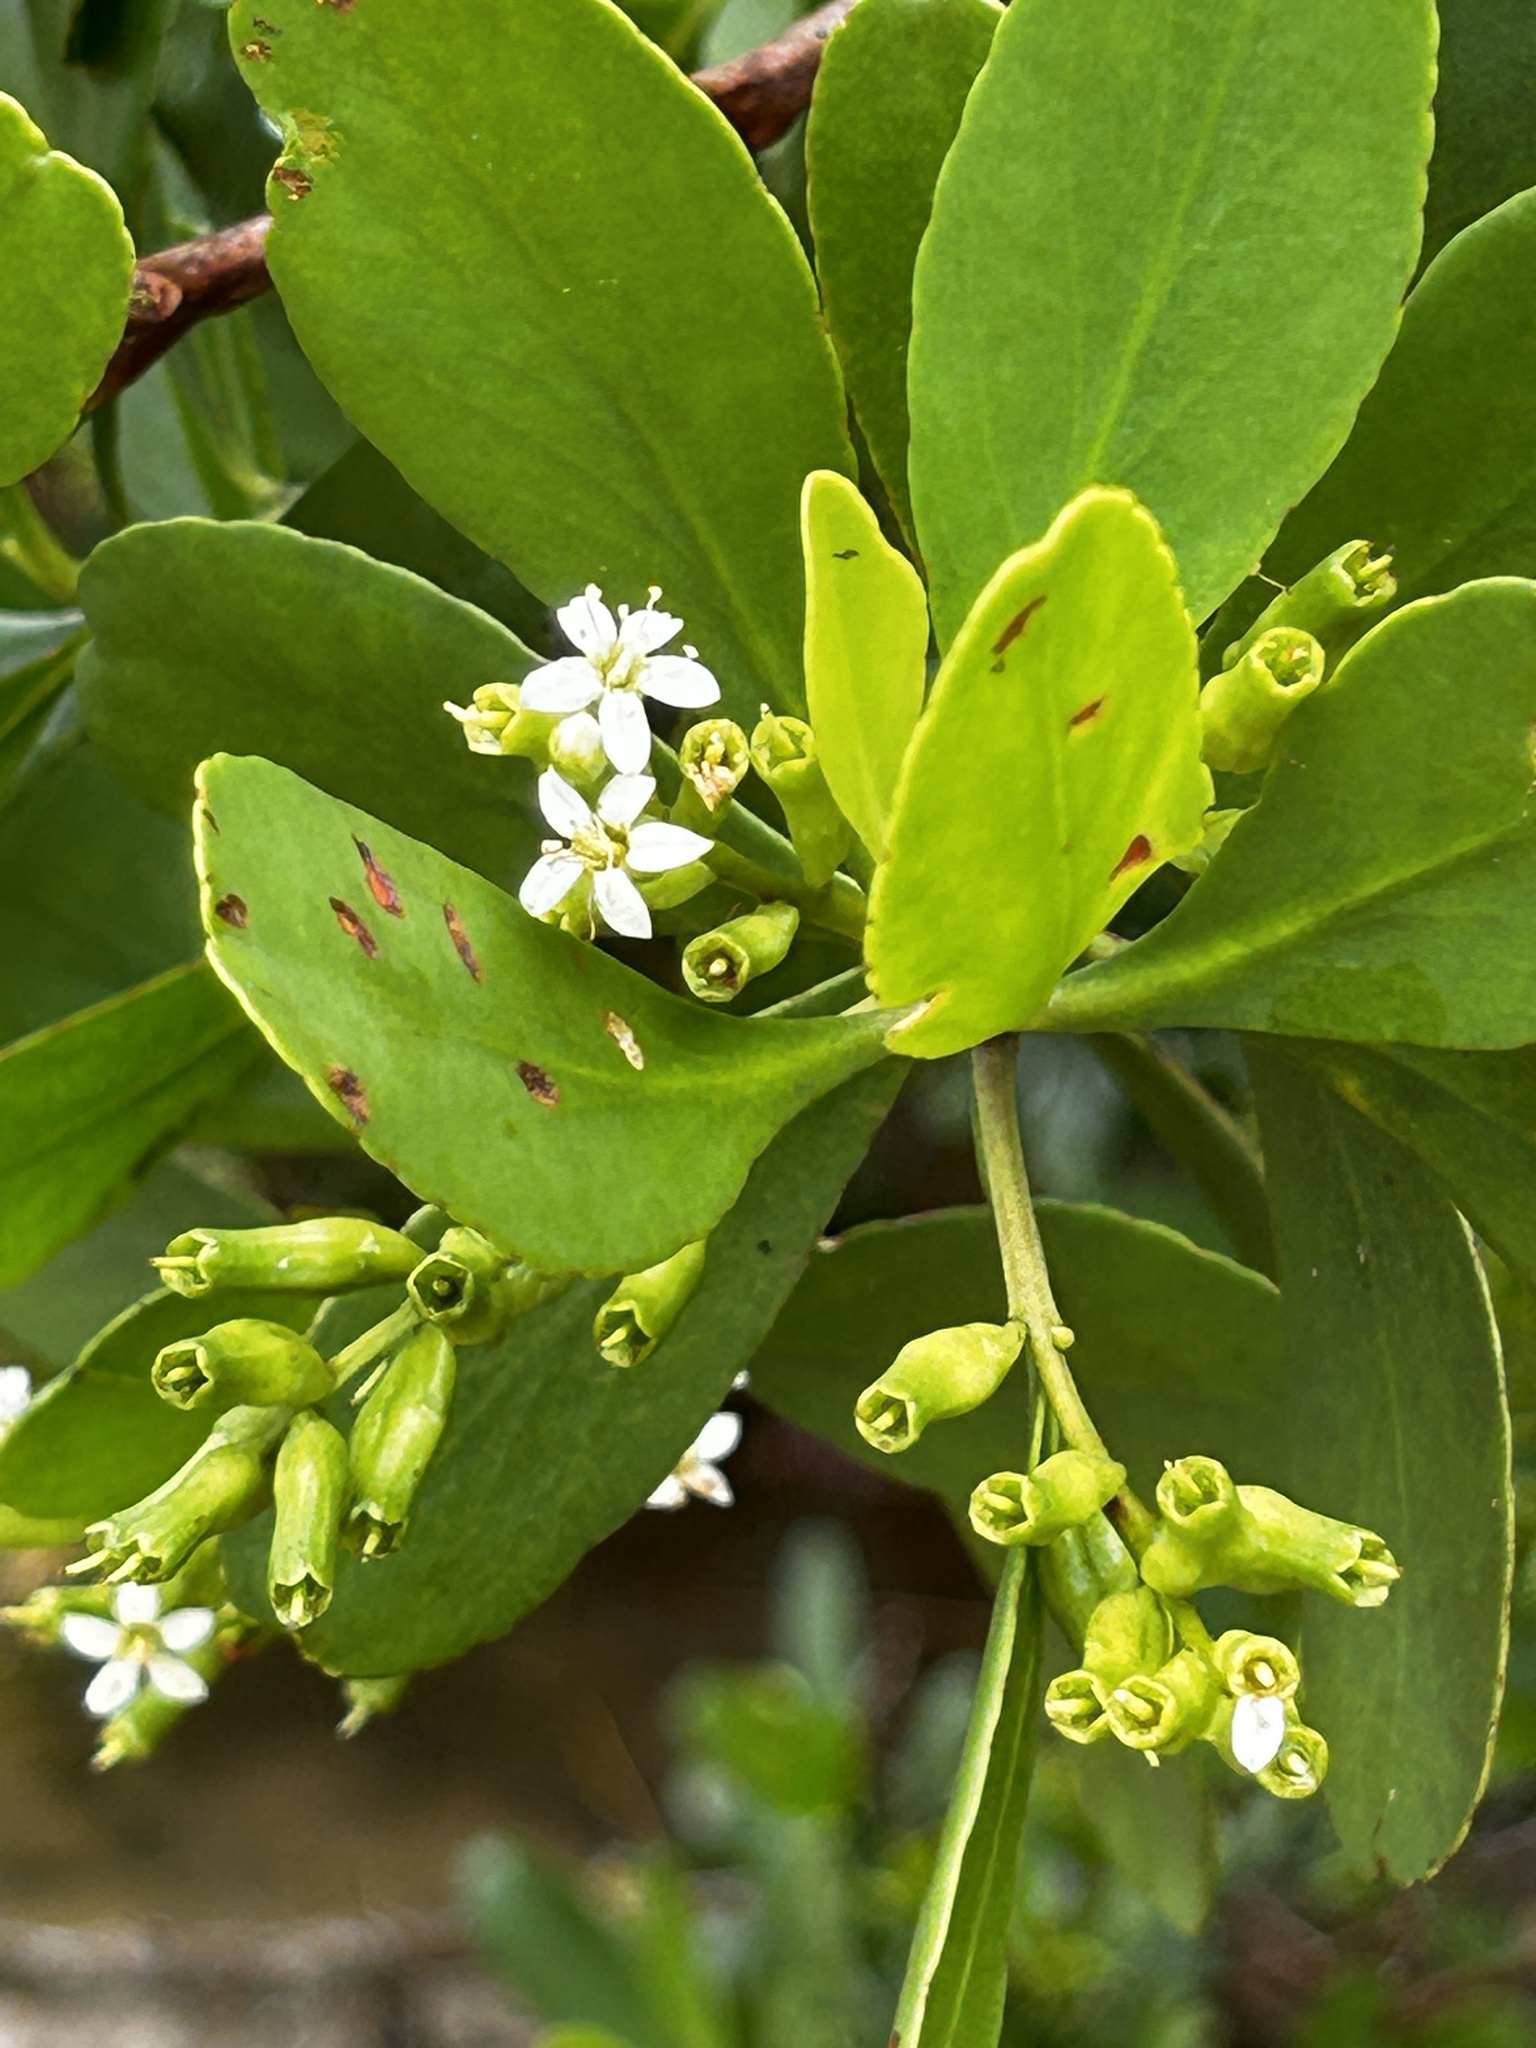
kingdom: Plantae
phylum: Tracheophyta
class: Magnoliopsida
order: Myrtales
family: Combretaceae
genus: Lumnitzera
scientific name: Lumnitzera racemosa
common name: White-flowered black mangrove
